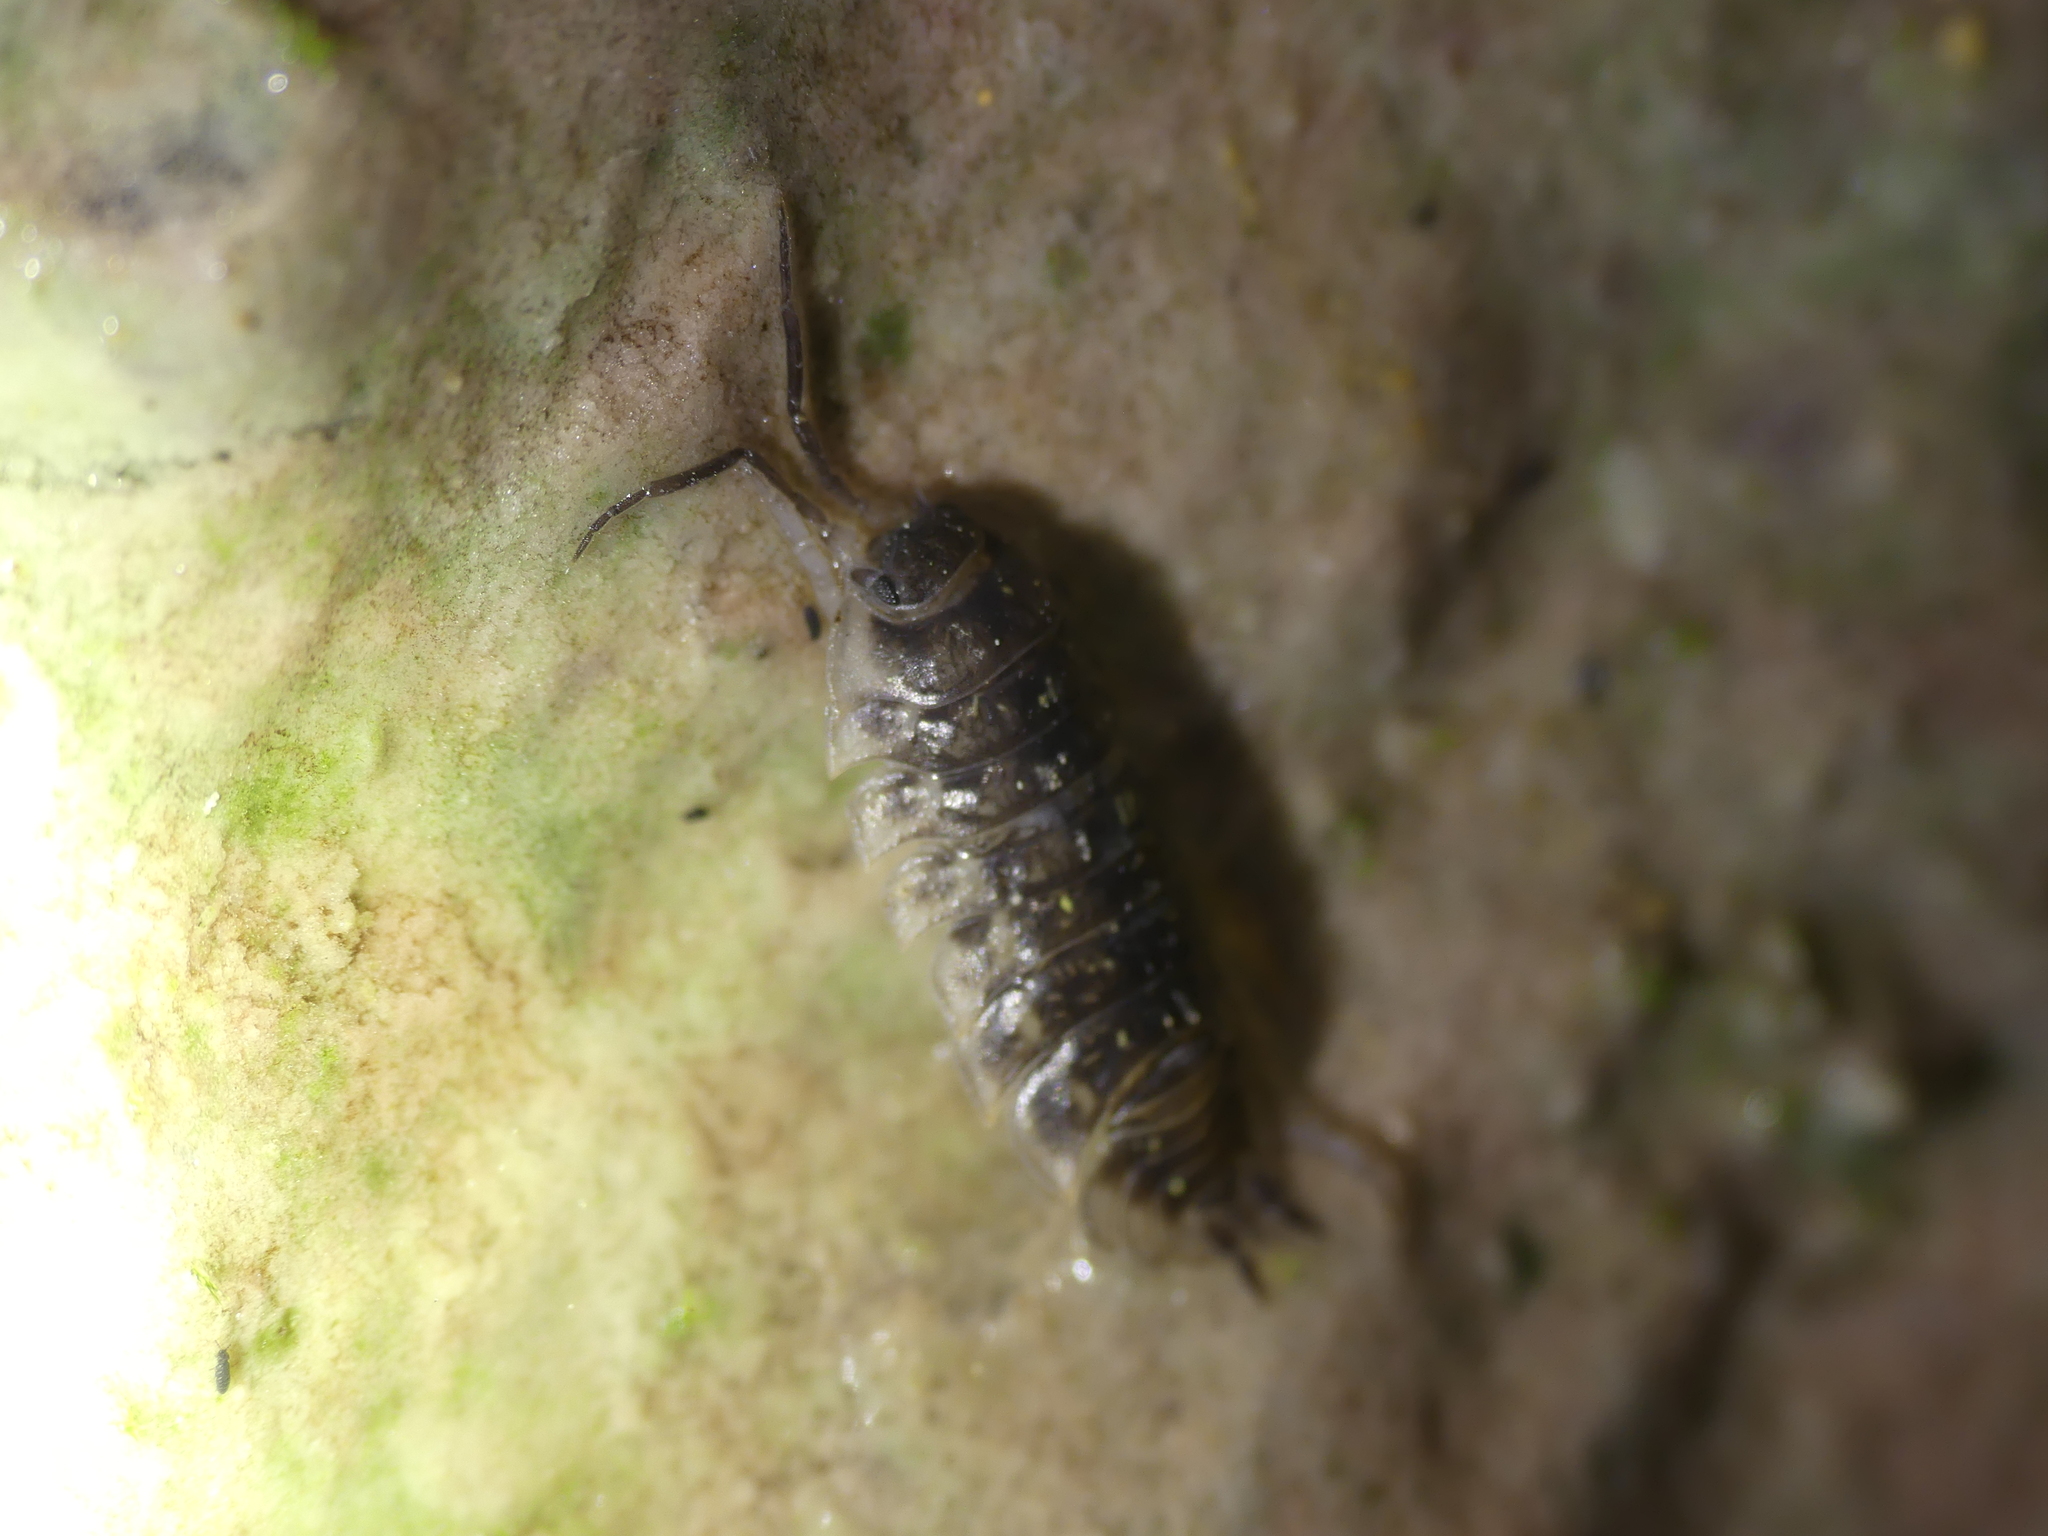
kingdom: Animalia
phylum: Arthropoda
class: Malacostraca
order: Isopoda
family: Oniscidae
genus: Oniscus
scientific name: Oniscus asellus
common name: Common shiny woodlouse
